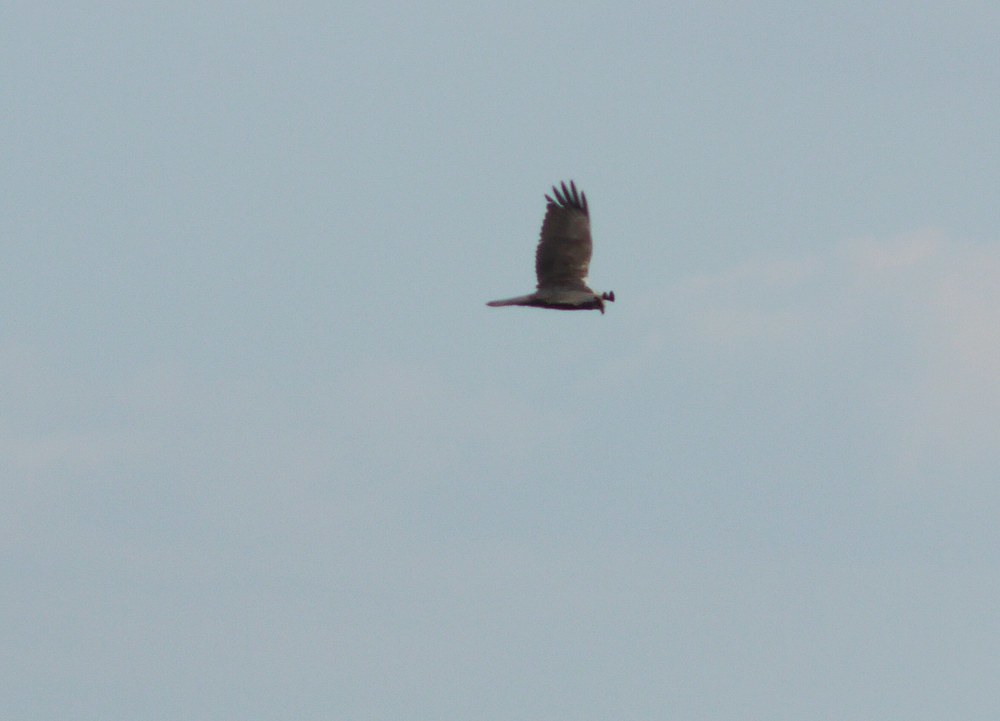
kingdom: Animalia
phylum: Chordata
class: Aves
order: Accipitriformes
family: Accipitridae
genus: Circus
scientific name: Circus aeruginosus
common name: Western marsh harrier
